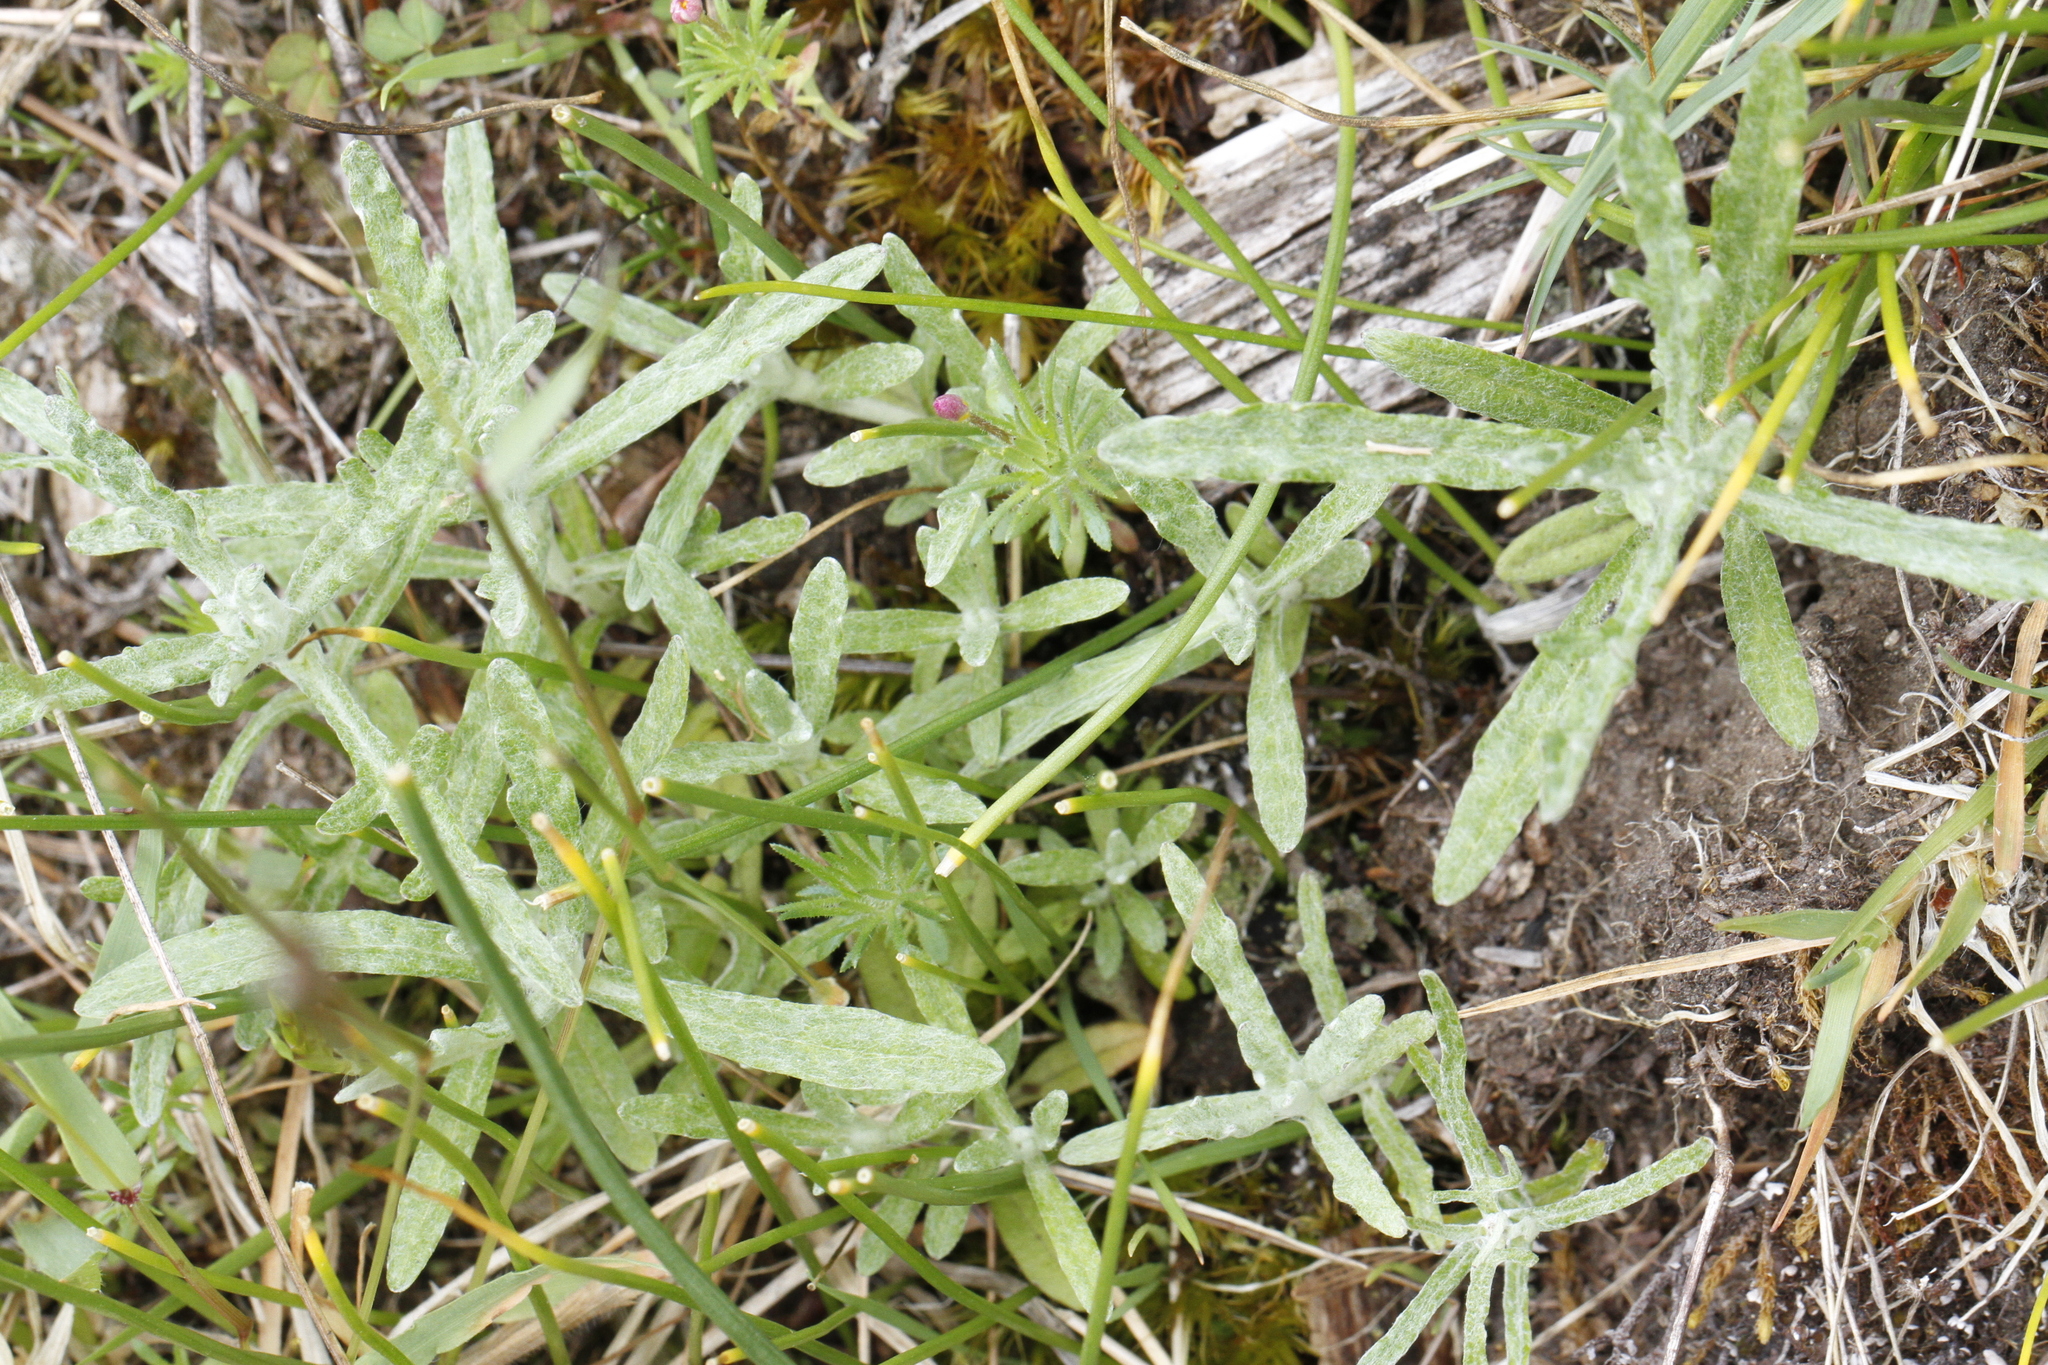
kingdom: Plantae
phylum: Tracheophyta
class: Magnoliopsida
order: Asterales
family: Asteraceae
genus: Eriophyllum
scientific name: Eriophyllum lanatum
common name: Common woolly-sunflower
